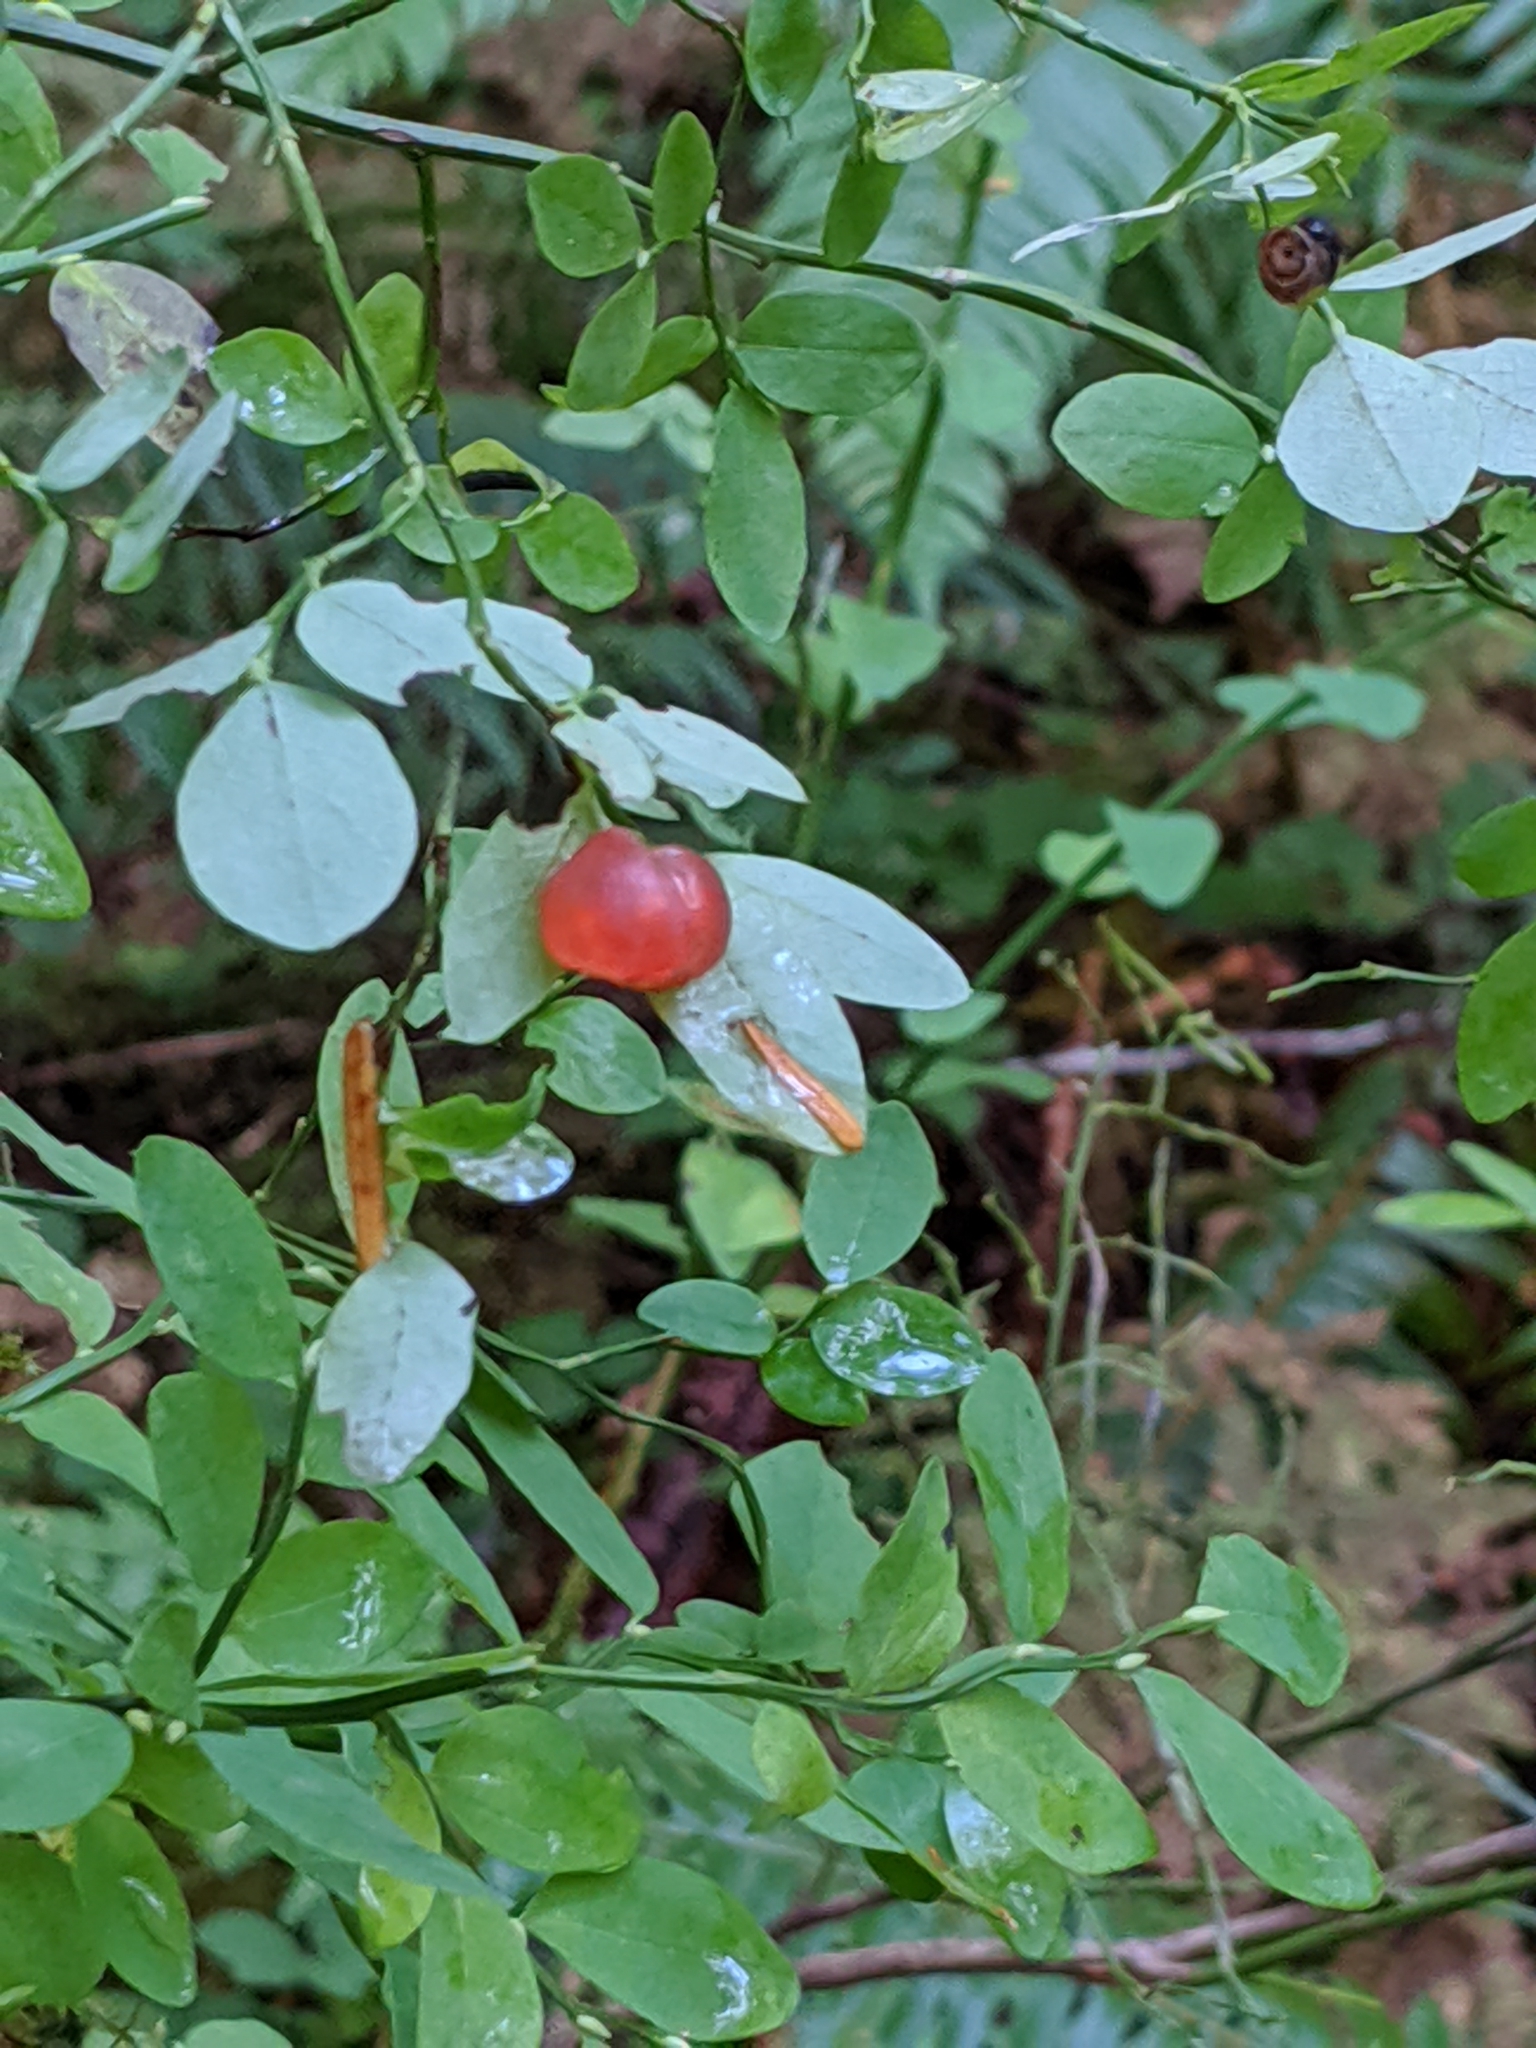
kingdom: Plantae
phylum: Tracheophyta
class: Magnoliopsida
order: Ericales
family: Ericaceae
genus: Vaccinium
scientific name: Vaccinium parvifolium
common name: Red-huckleberry
